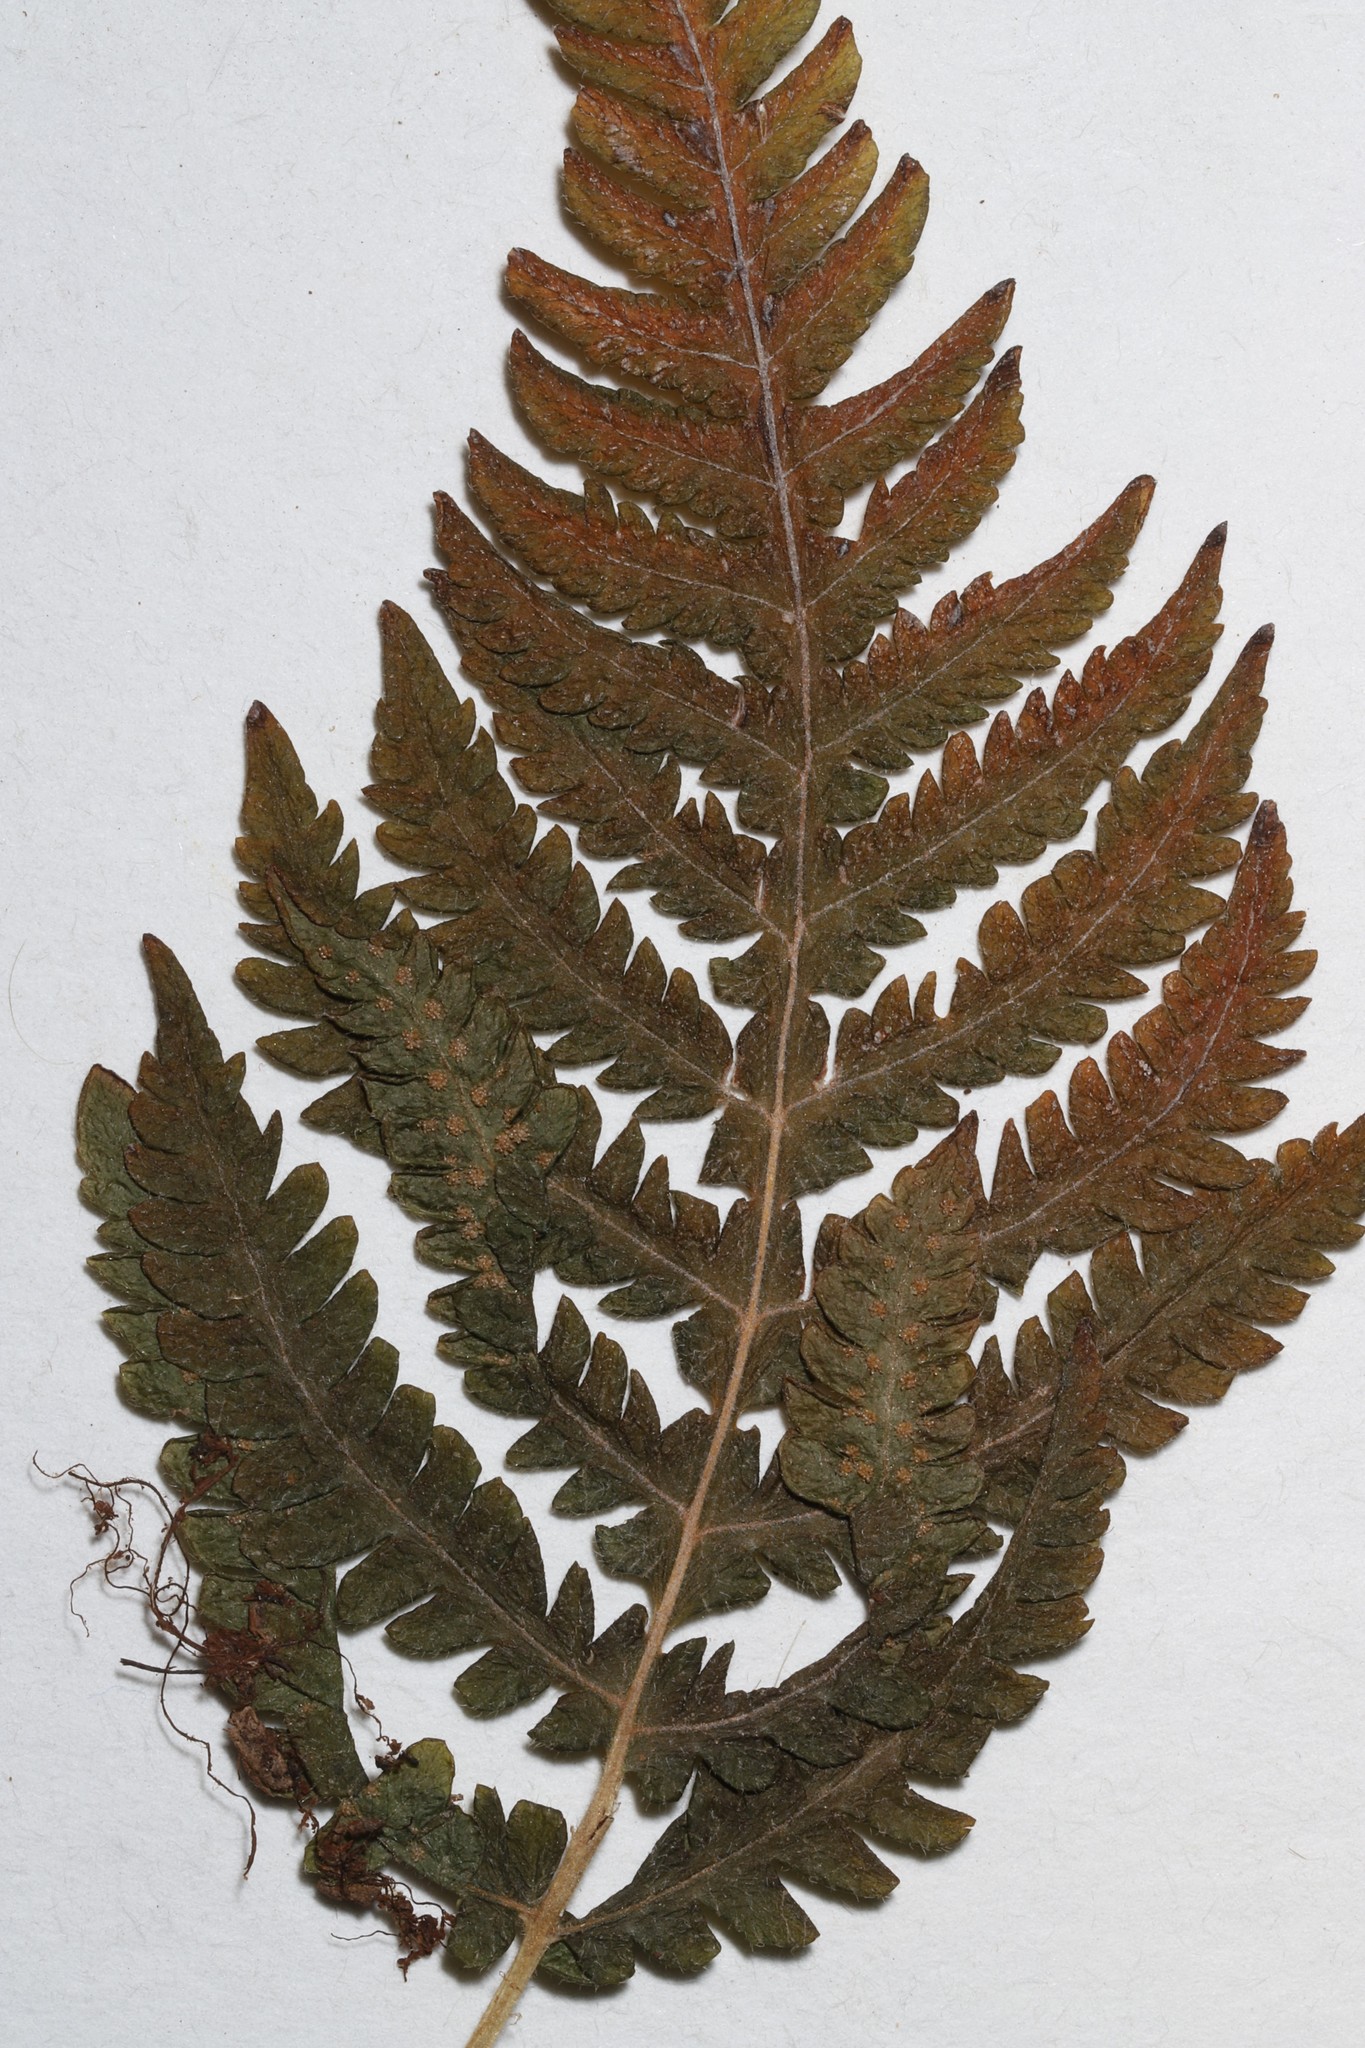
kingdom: Plantae
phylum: Tracheophyta
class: Polypodiopsida
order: Polypodiales
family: Thelypteridaceae
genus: Phegopteris
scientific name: Phegopteris connectilis
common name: Beech fern
